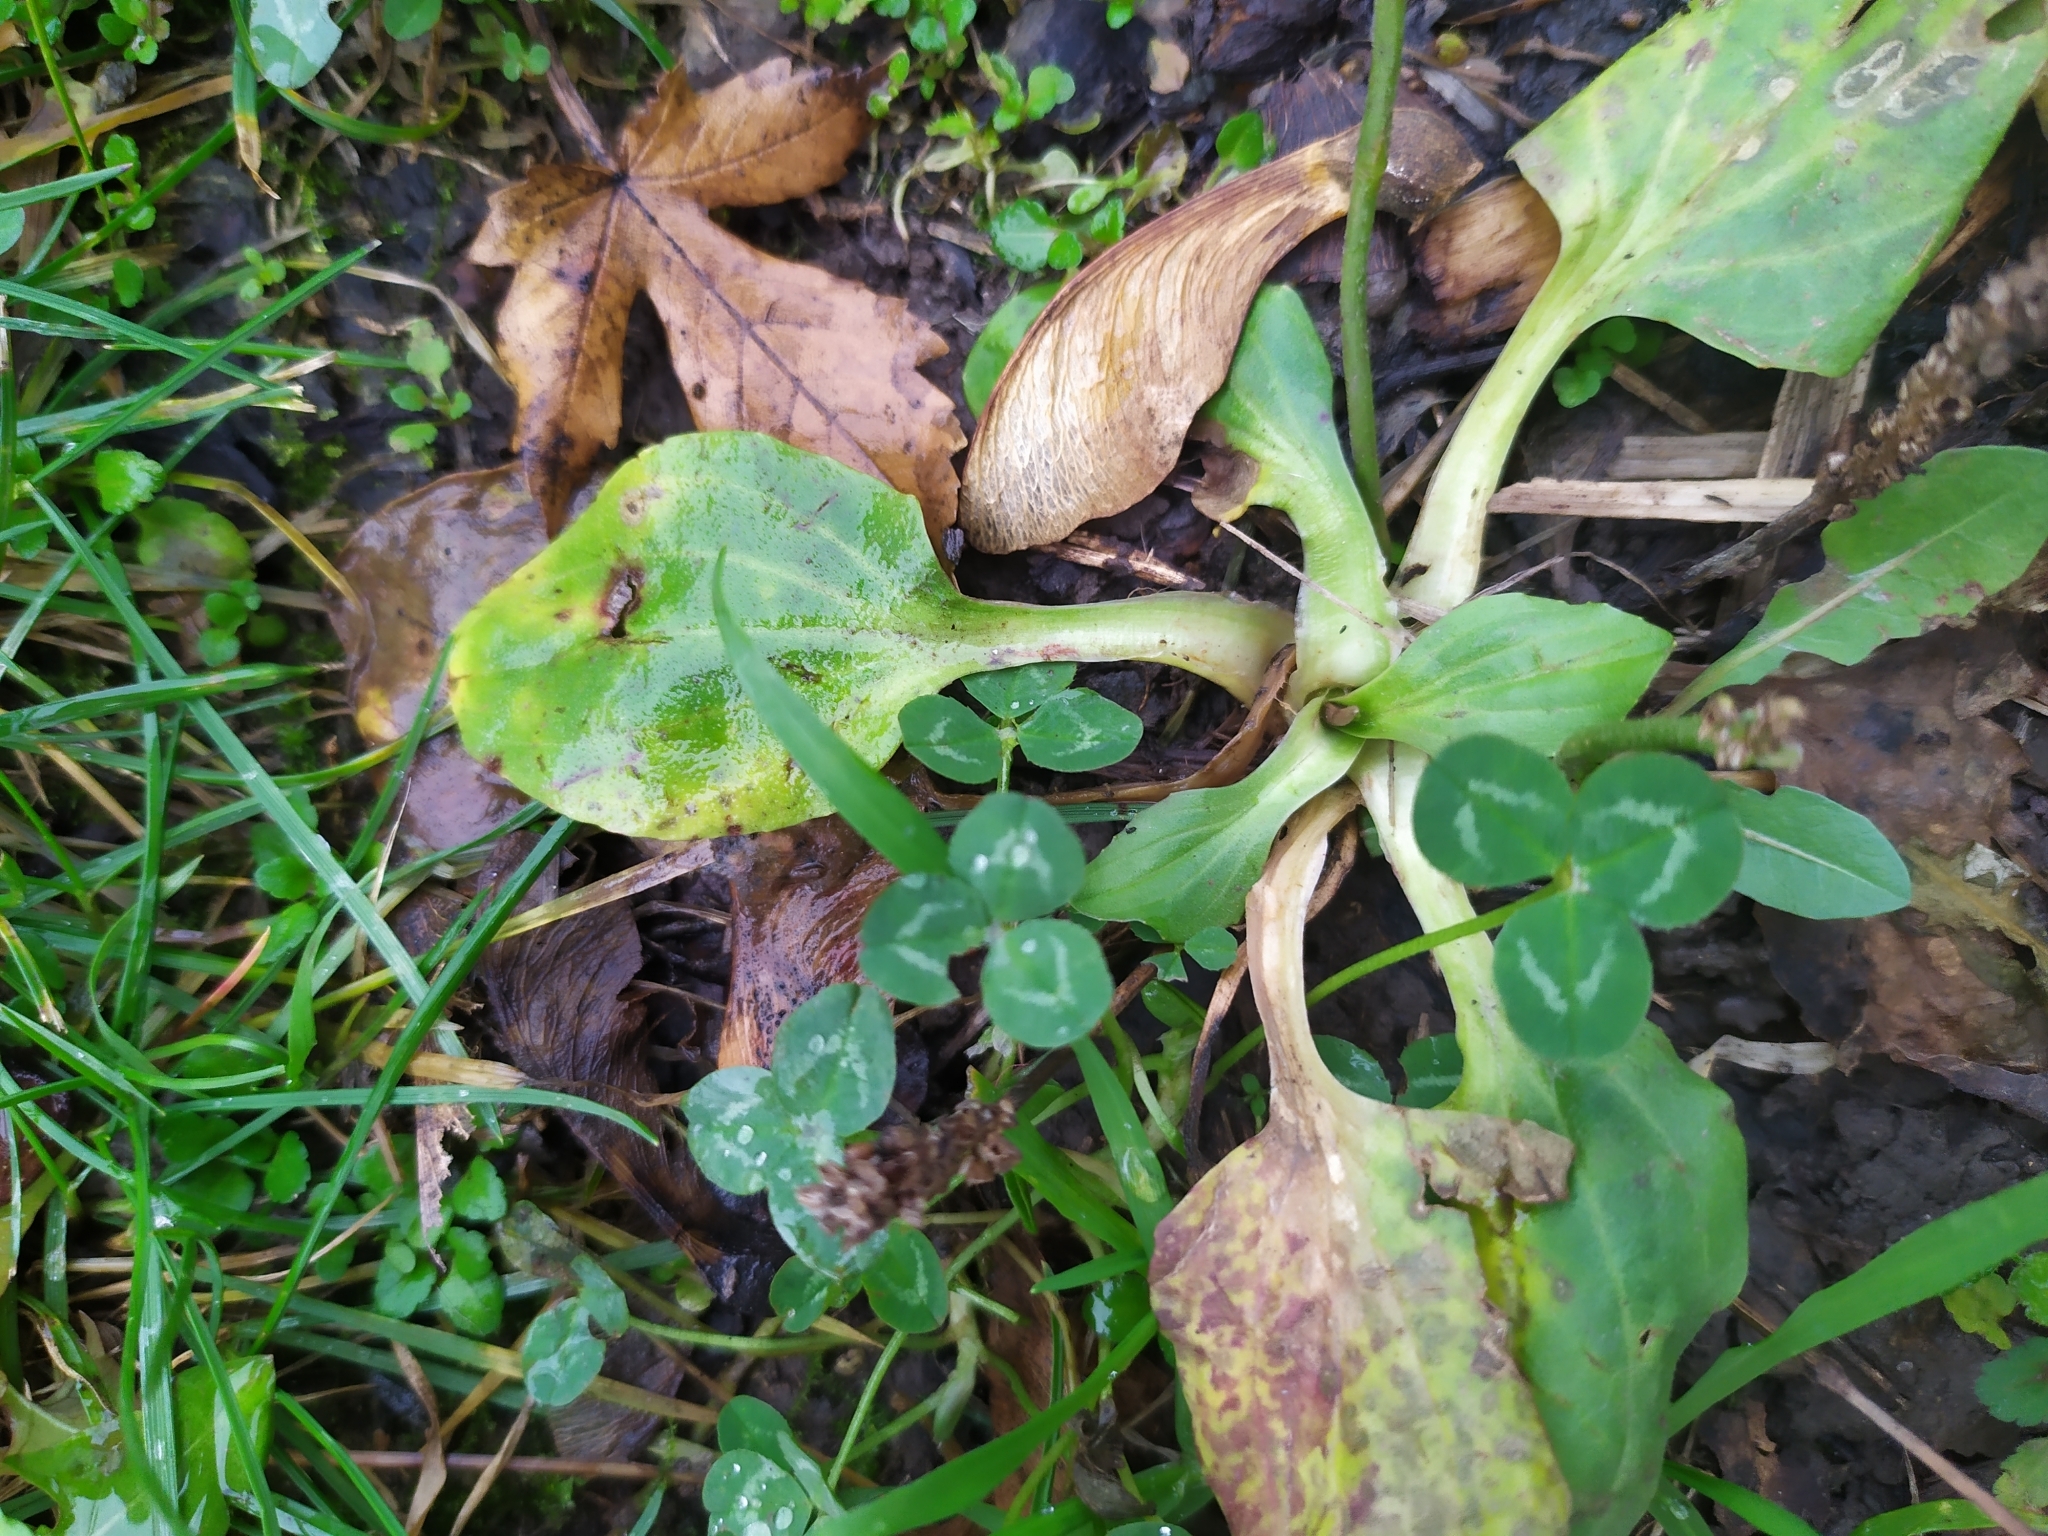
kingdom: Plantae
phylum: Tracheophyta
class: Magnoliopsida
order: Lamiales
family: Plantaginaceae
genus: Plantago
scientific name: Plantago major
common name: Common plantain
